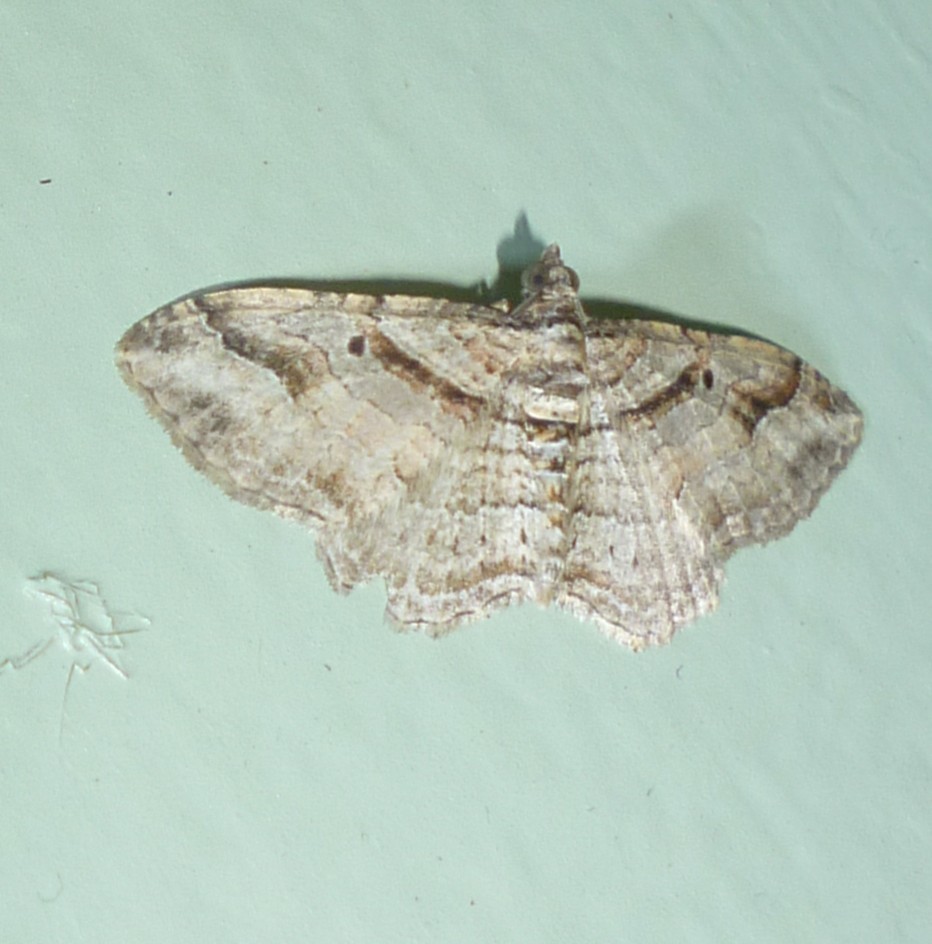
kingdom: Animalia
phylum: Arthropoda
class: Insecta
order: Lepidoptera
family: Geometridae
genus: Costaconvexa
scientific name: Costaconvexa centrostrigaria
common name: Bent-line carpet
